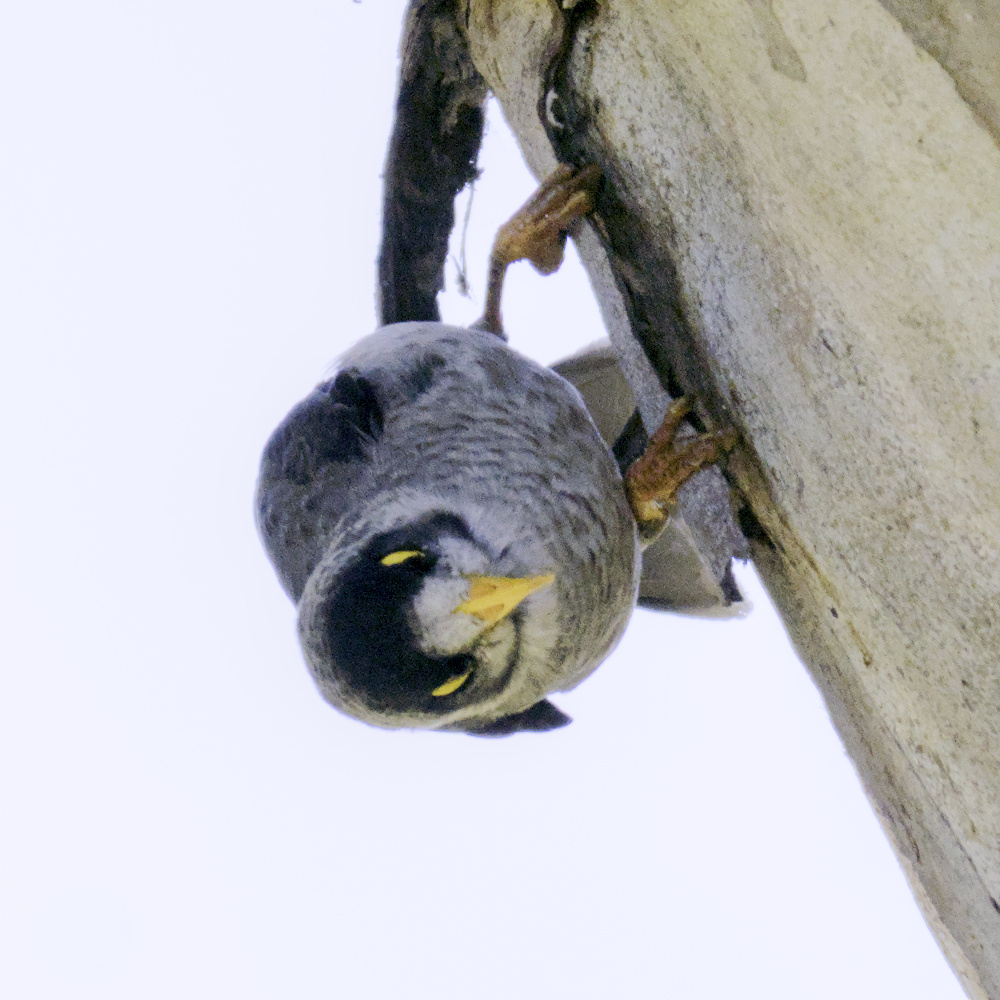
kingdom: Animalia
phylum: Chordata
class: Aves
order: Passeriformes
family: Meliphagidae
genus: Manorina
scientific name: Manorina melanocephala
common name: Noisy miner
